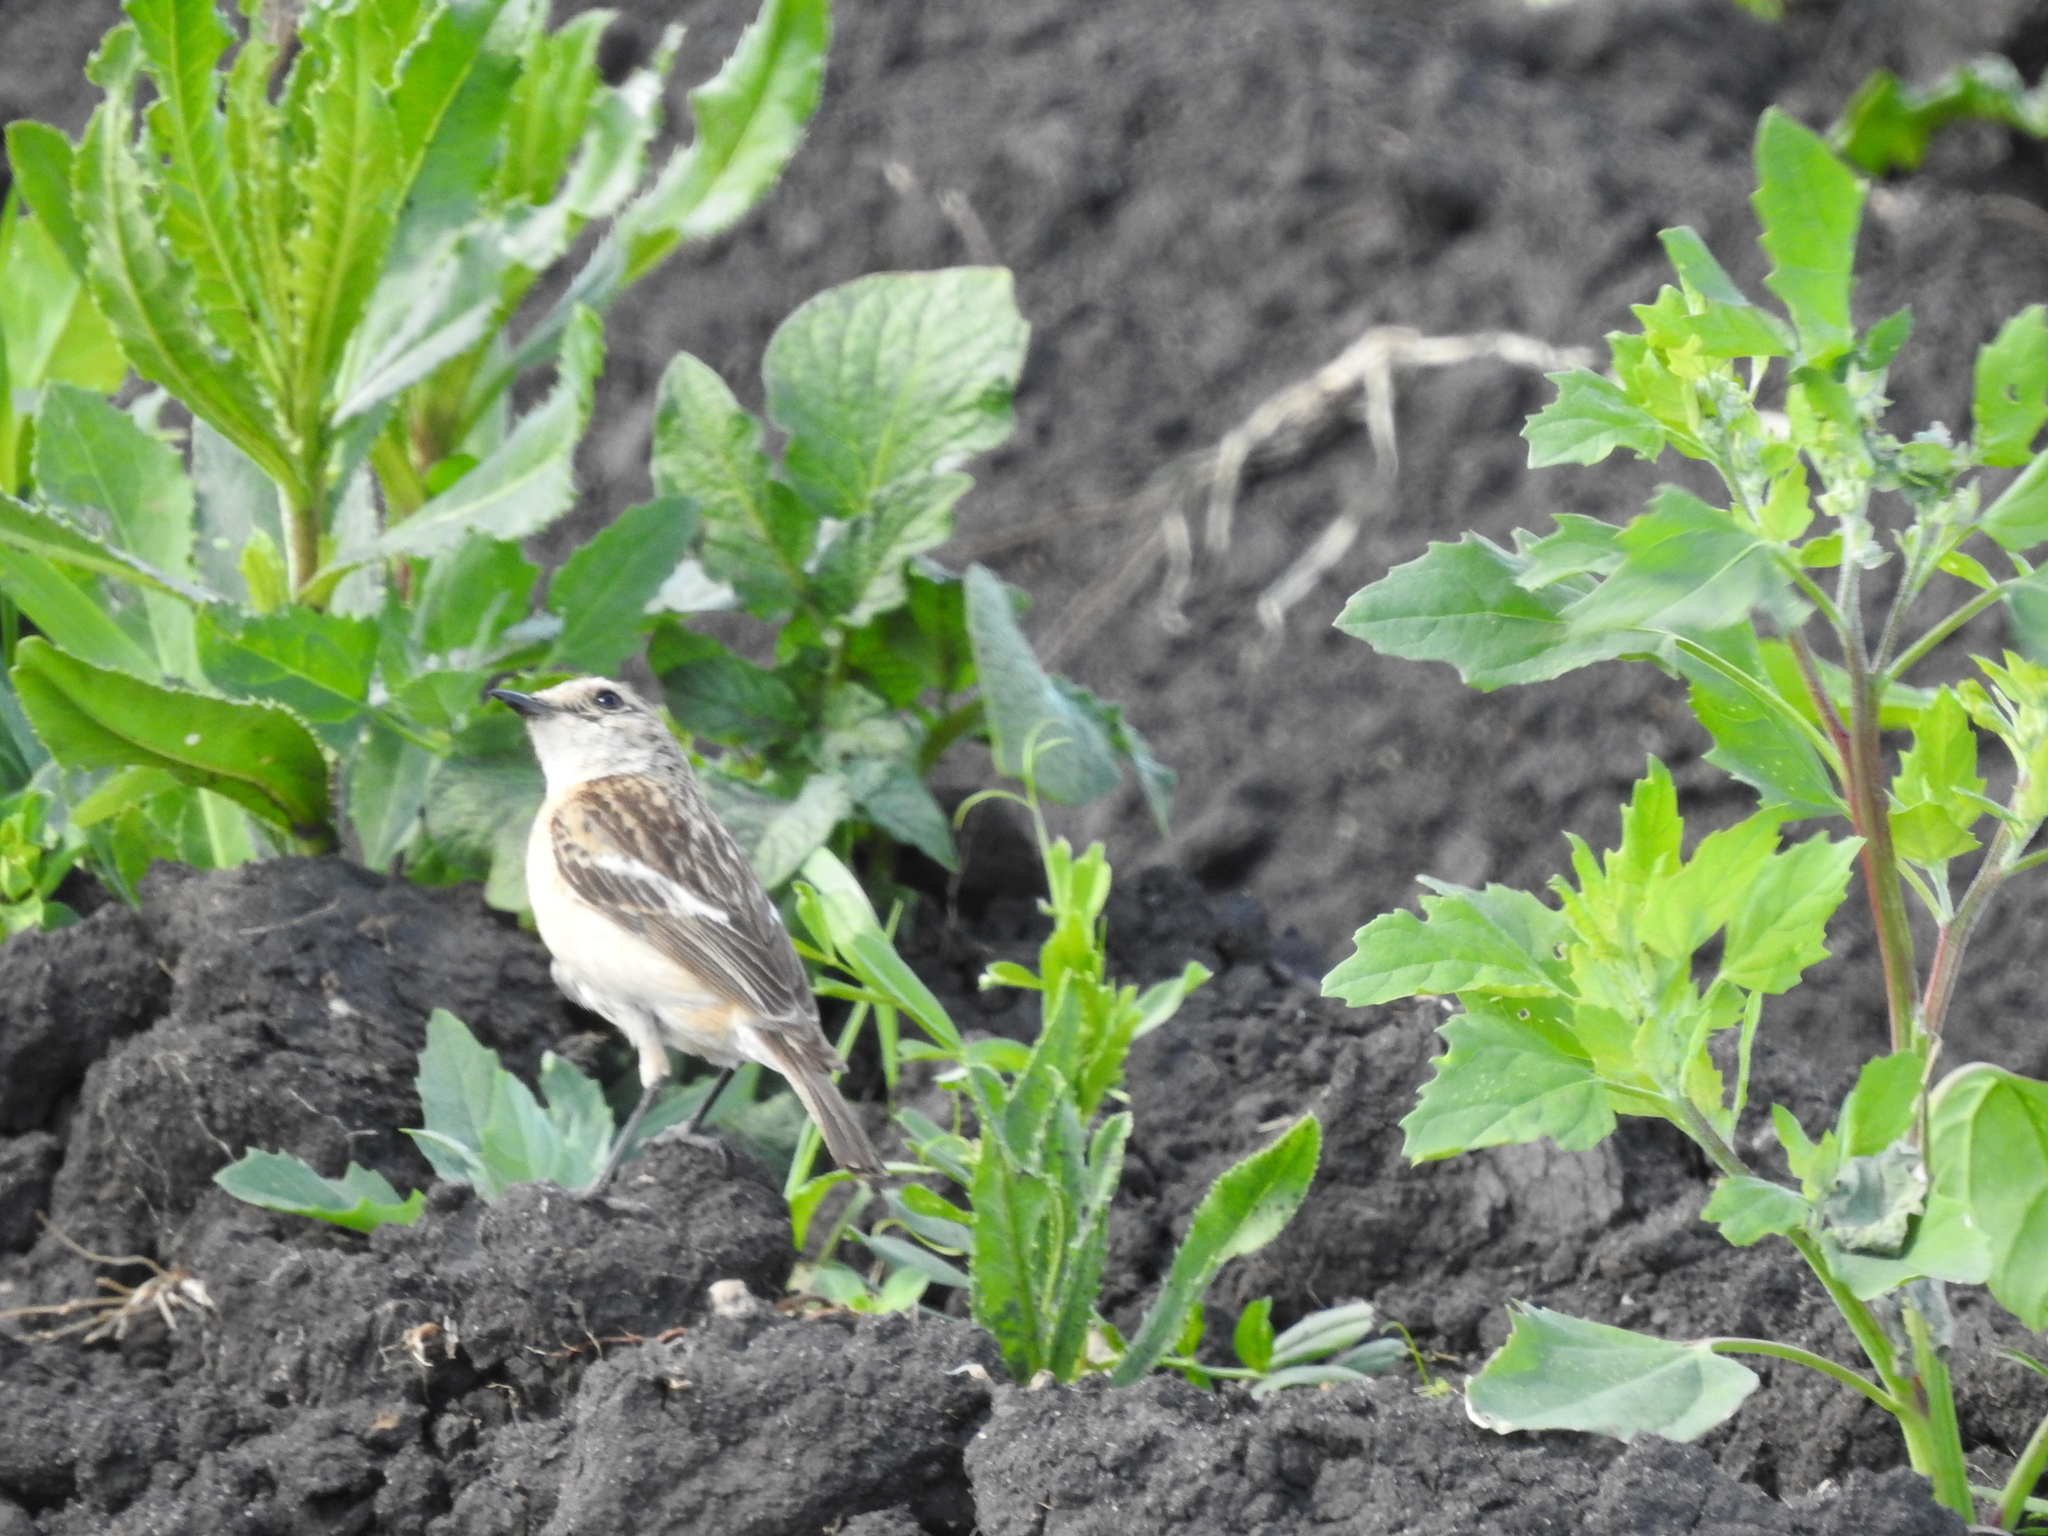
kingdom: Animalia
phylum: Chordata
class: Aves
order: Passeriformes
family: Muscicapidae
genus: Saxicola
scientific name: Saxicola maurus
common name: Siberian stonechat
